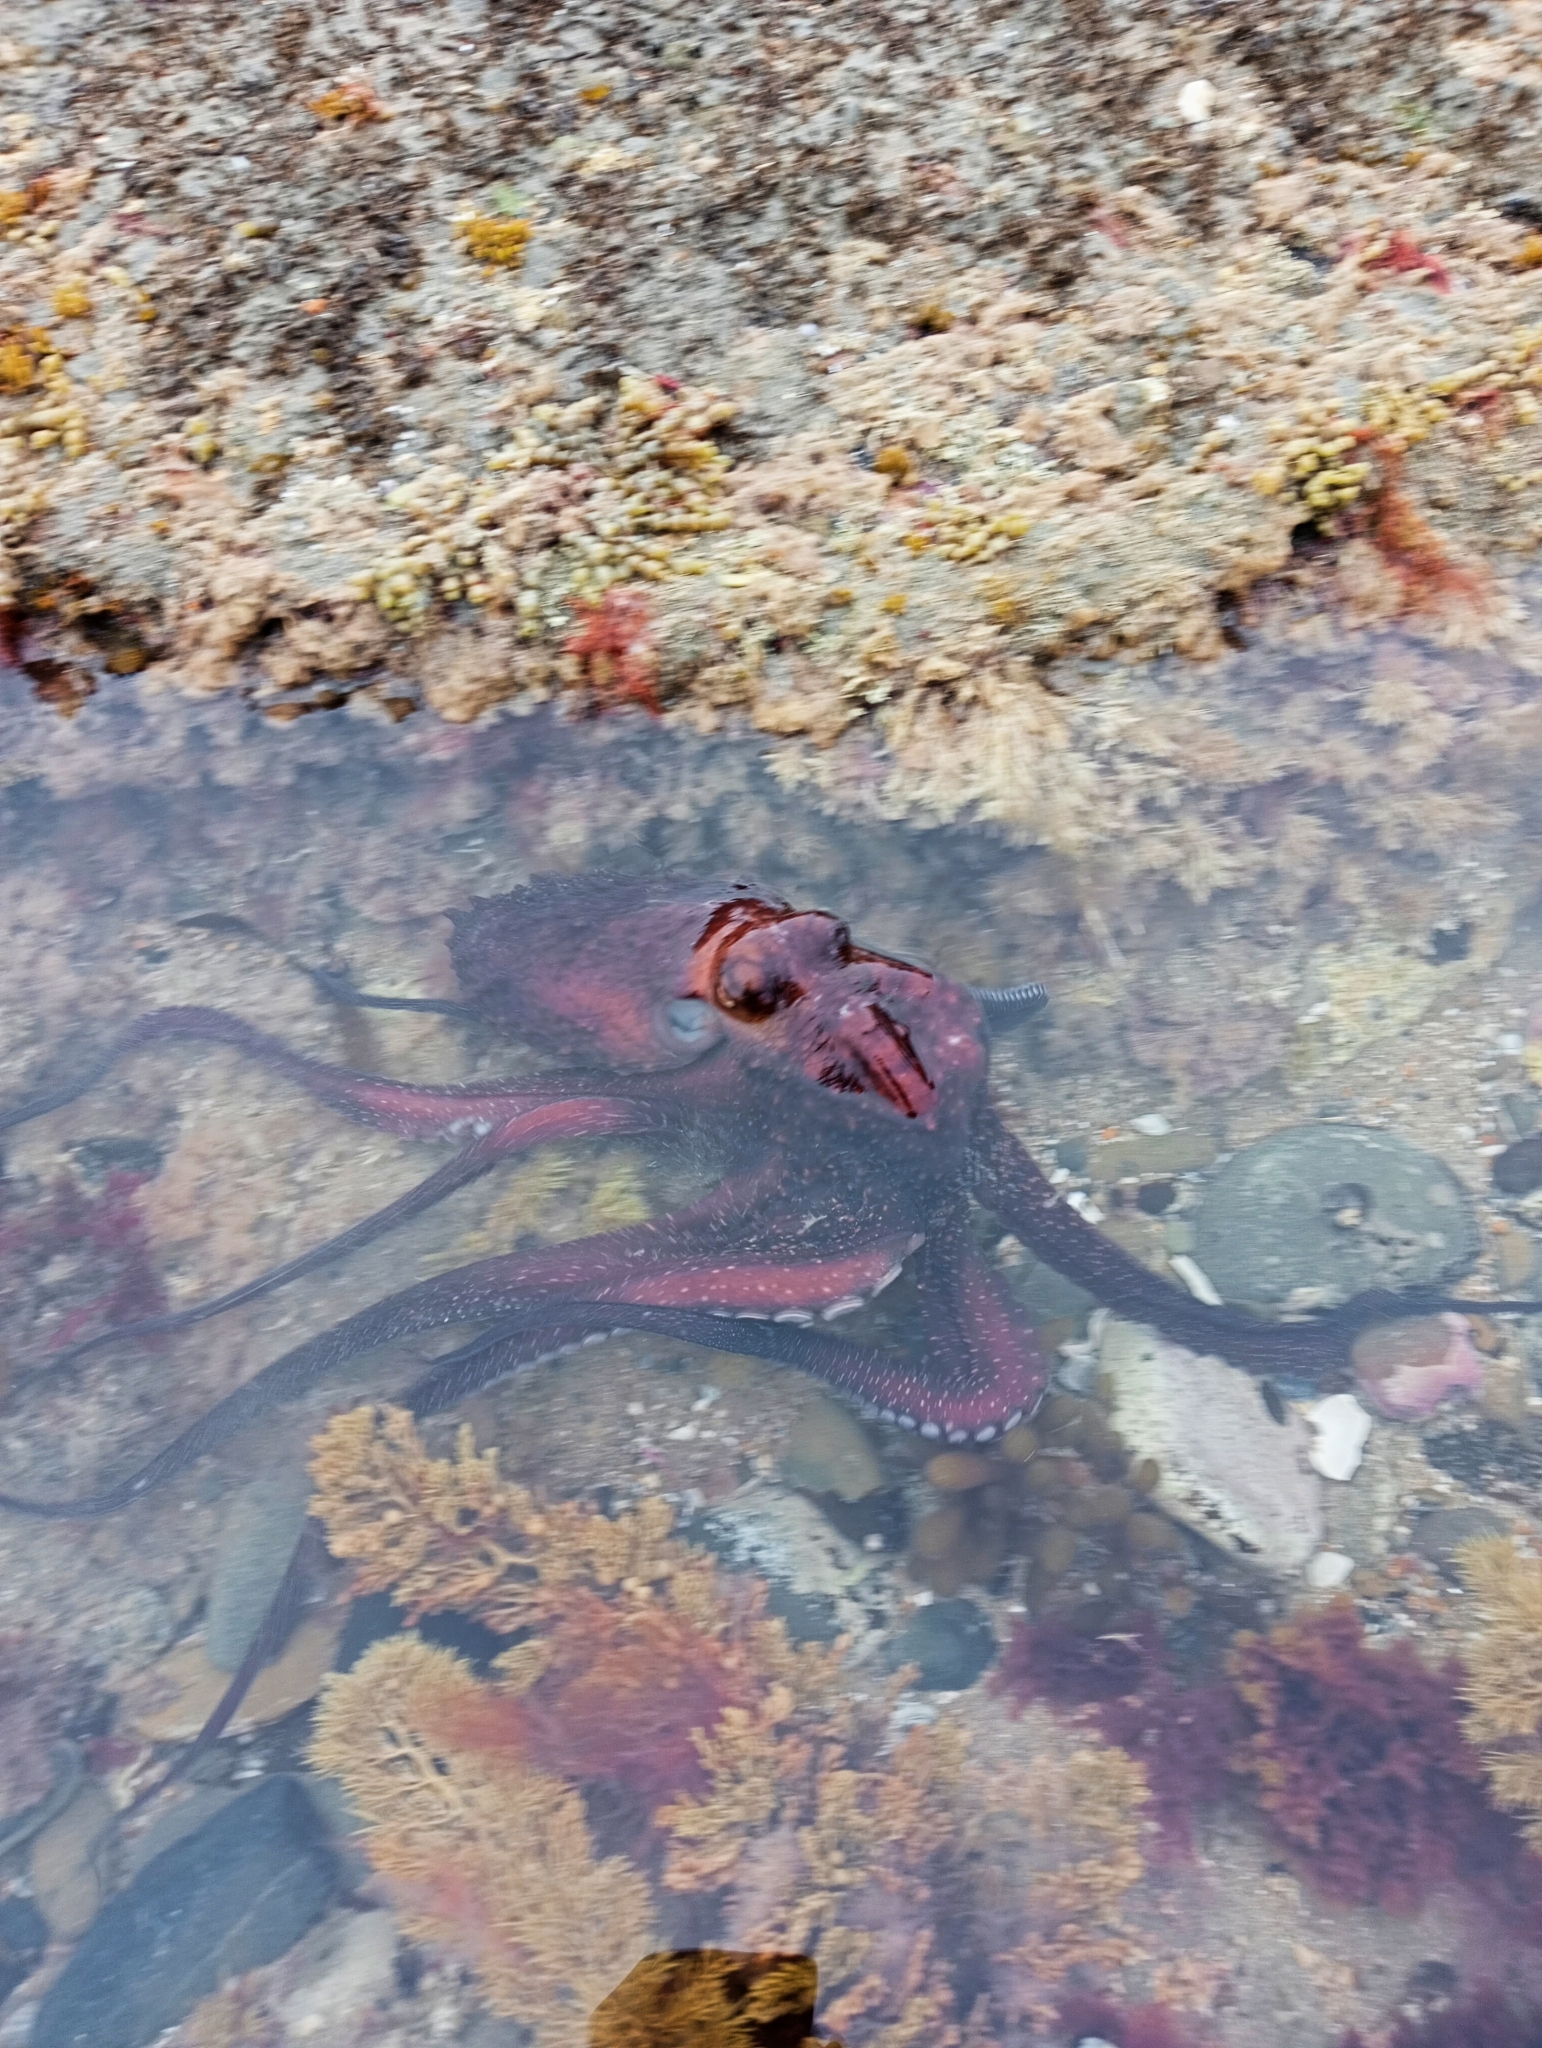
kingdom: Animalia
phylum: Mollusca
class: Cephalopoda
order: Octopoda
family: Octopodidae
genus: Macroctopus
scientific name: Macroctopus maorum
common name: Maori octopus
